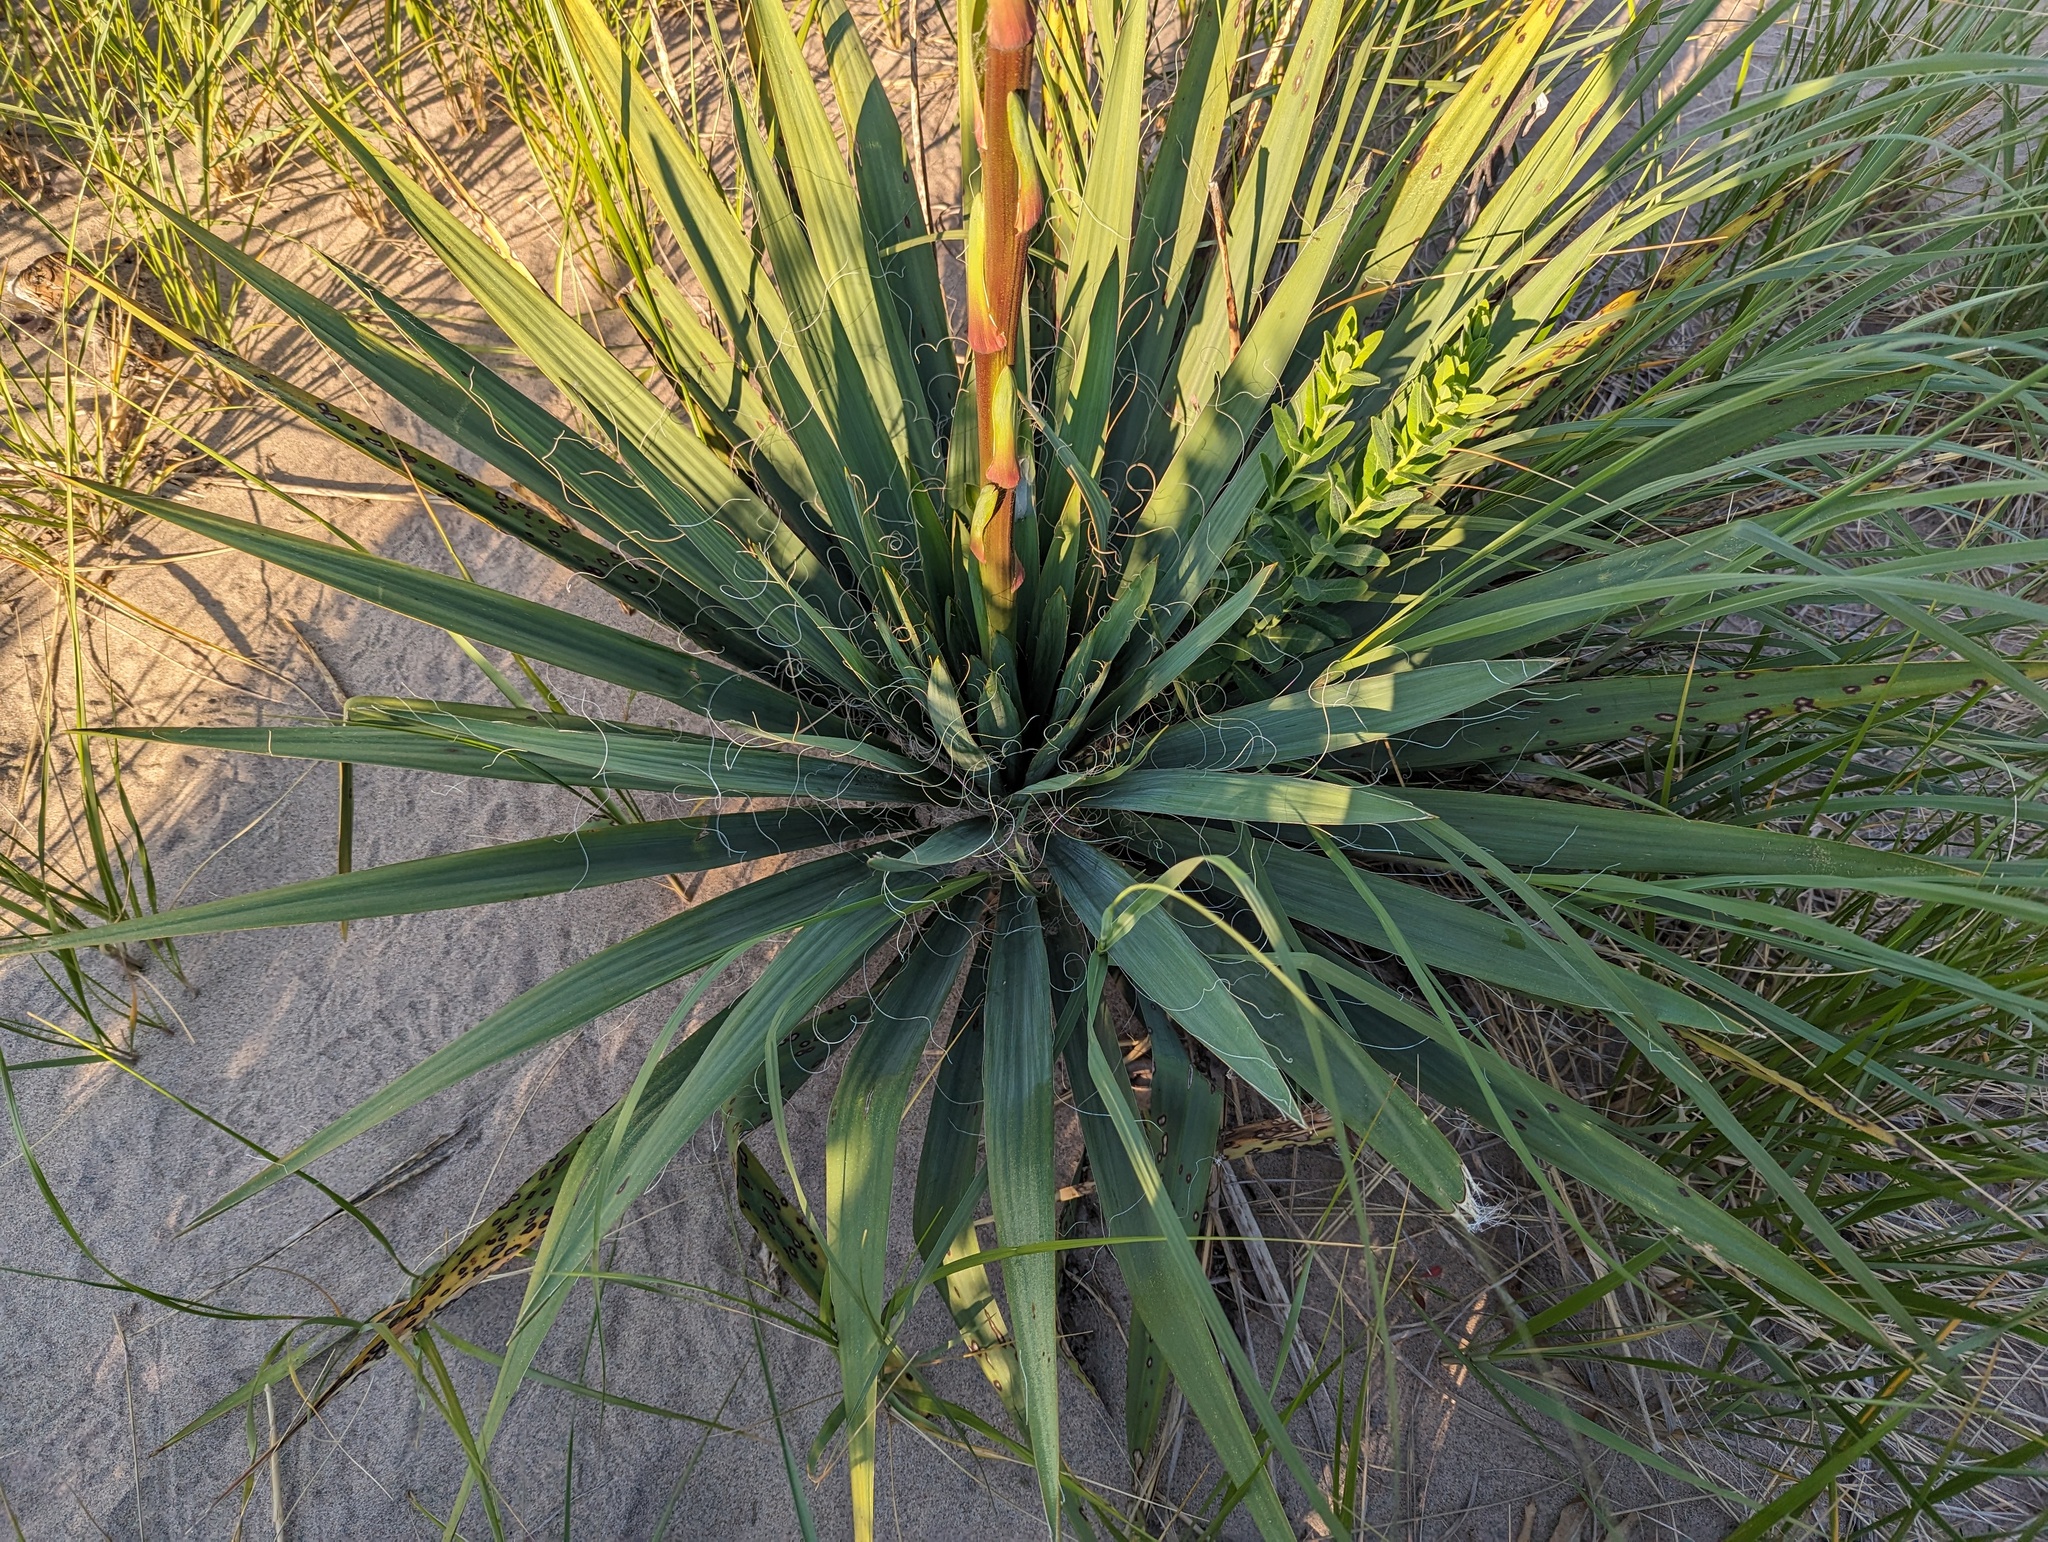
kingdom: Plantae
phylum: Tracheophyta
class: Liliopsida
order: Asparagales
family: Asparagaceae
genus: Yucca
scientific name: Yucca filamentosa
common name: Adam's-needle
